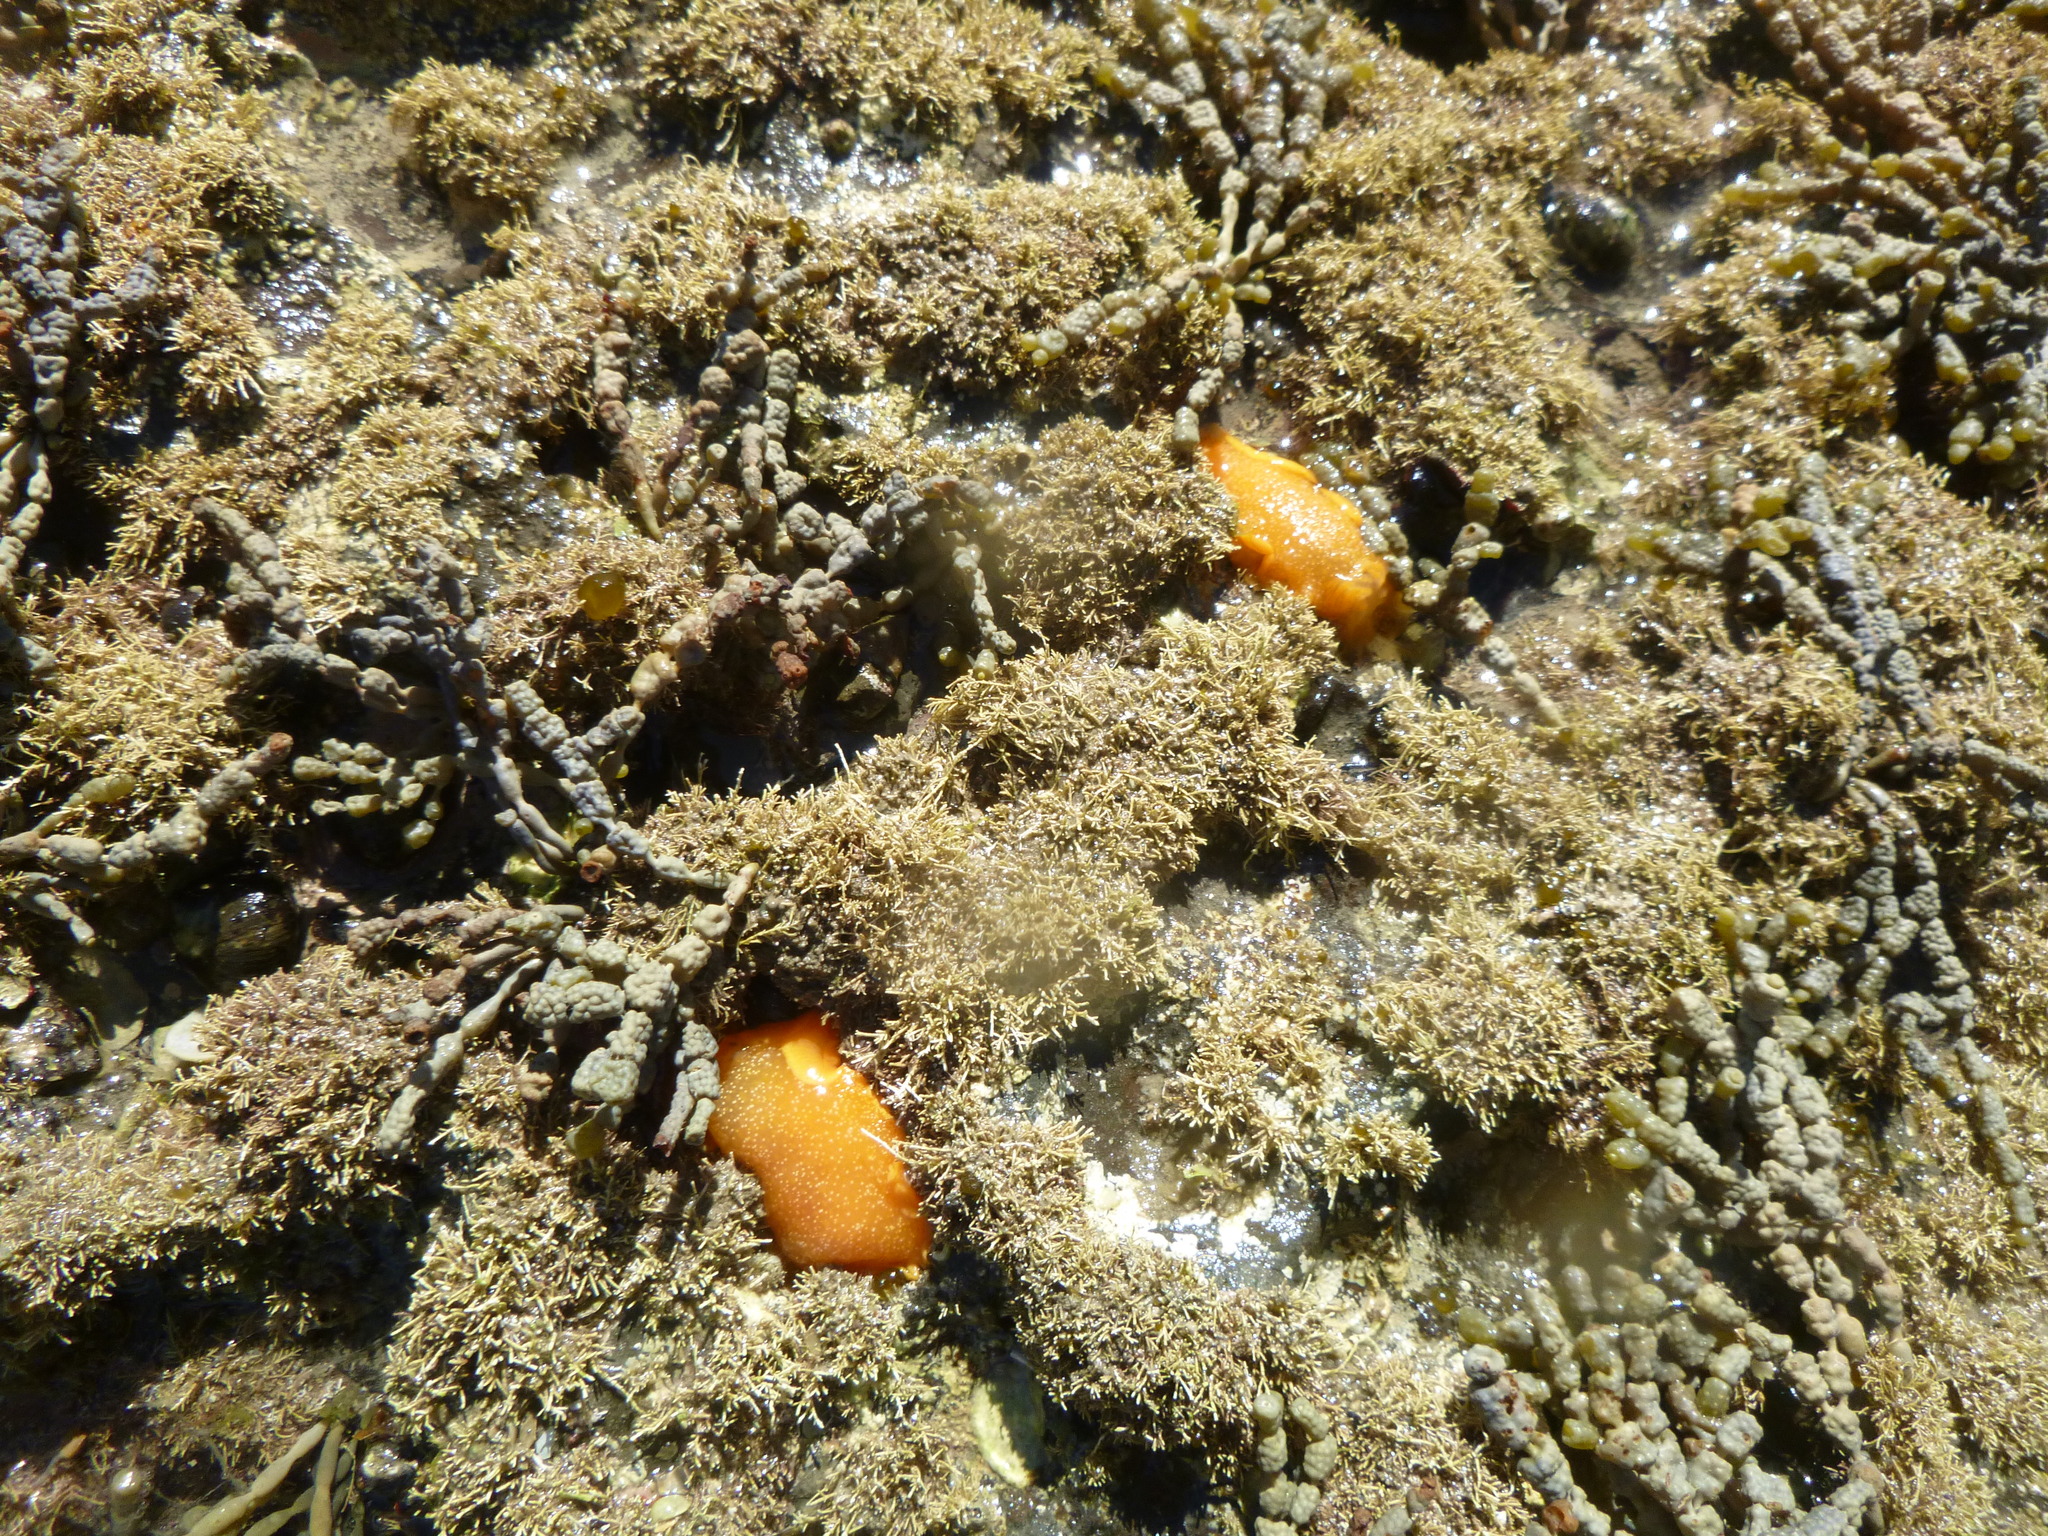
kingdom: Animalia
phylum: Mollusca
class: Gastropoda
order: Nudibranchia
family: Dendrodorididae
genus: Dendrodoris
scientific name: Dendrodoris citrina
